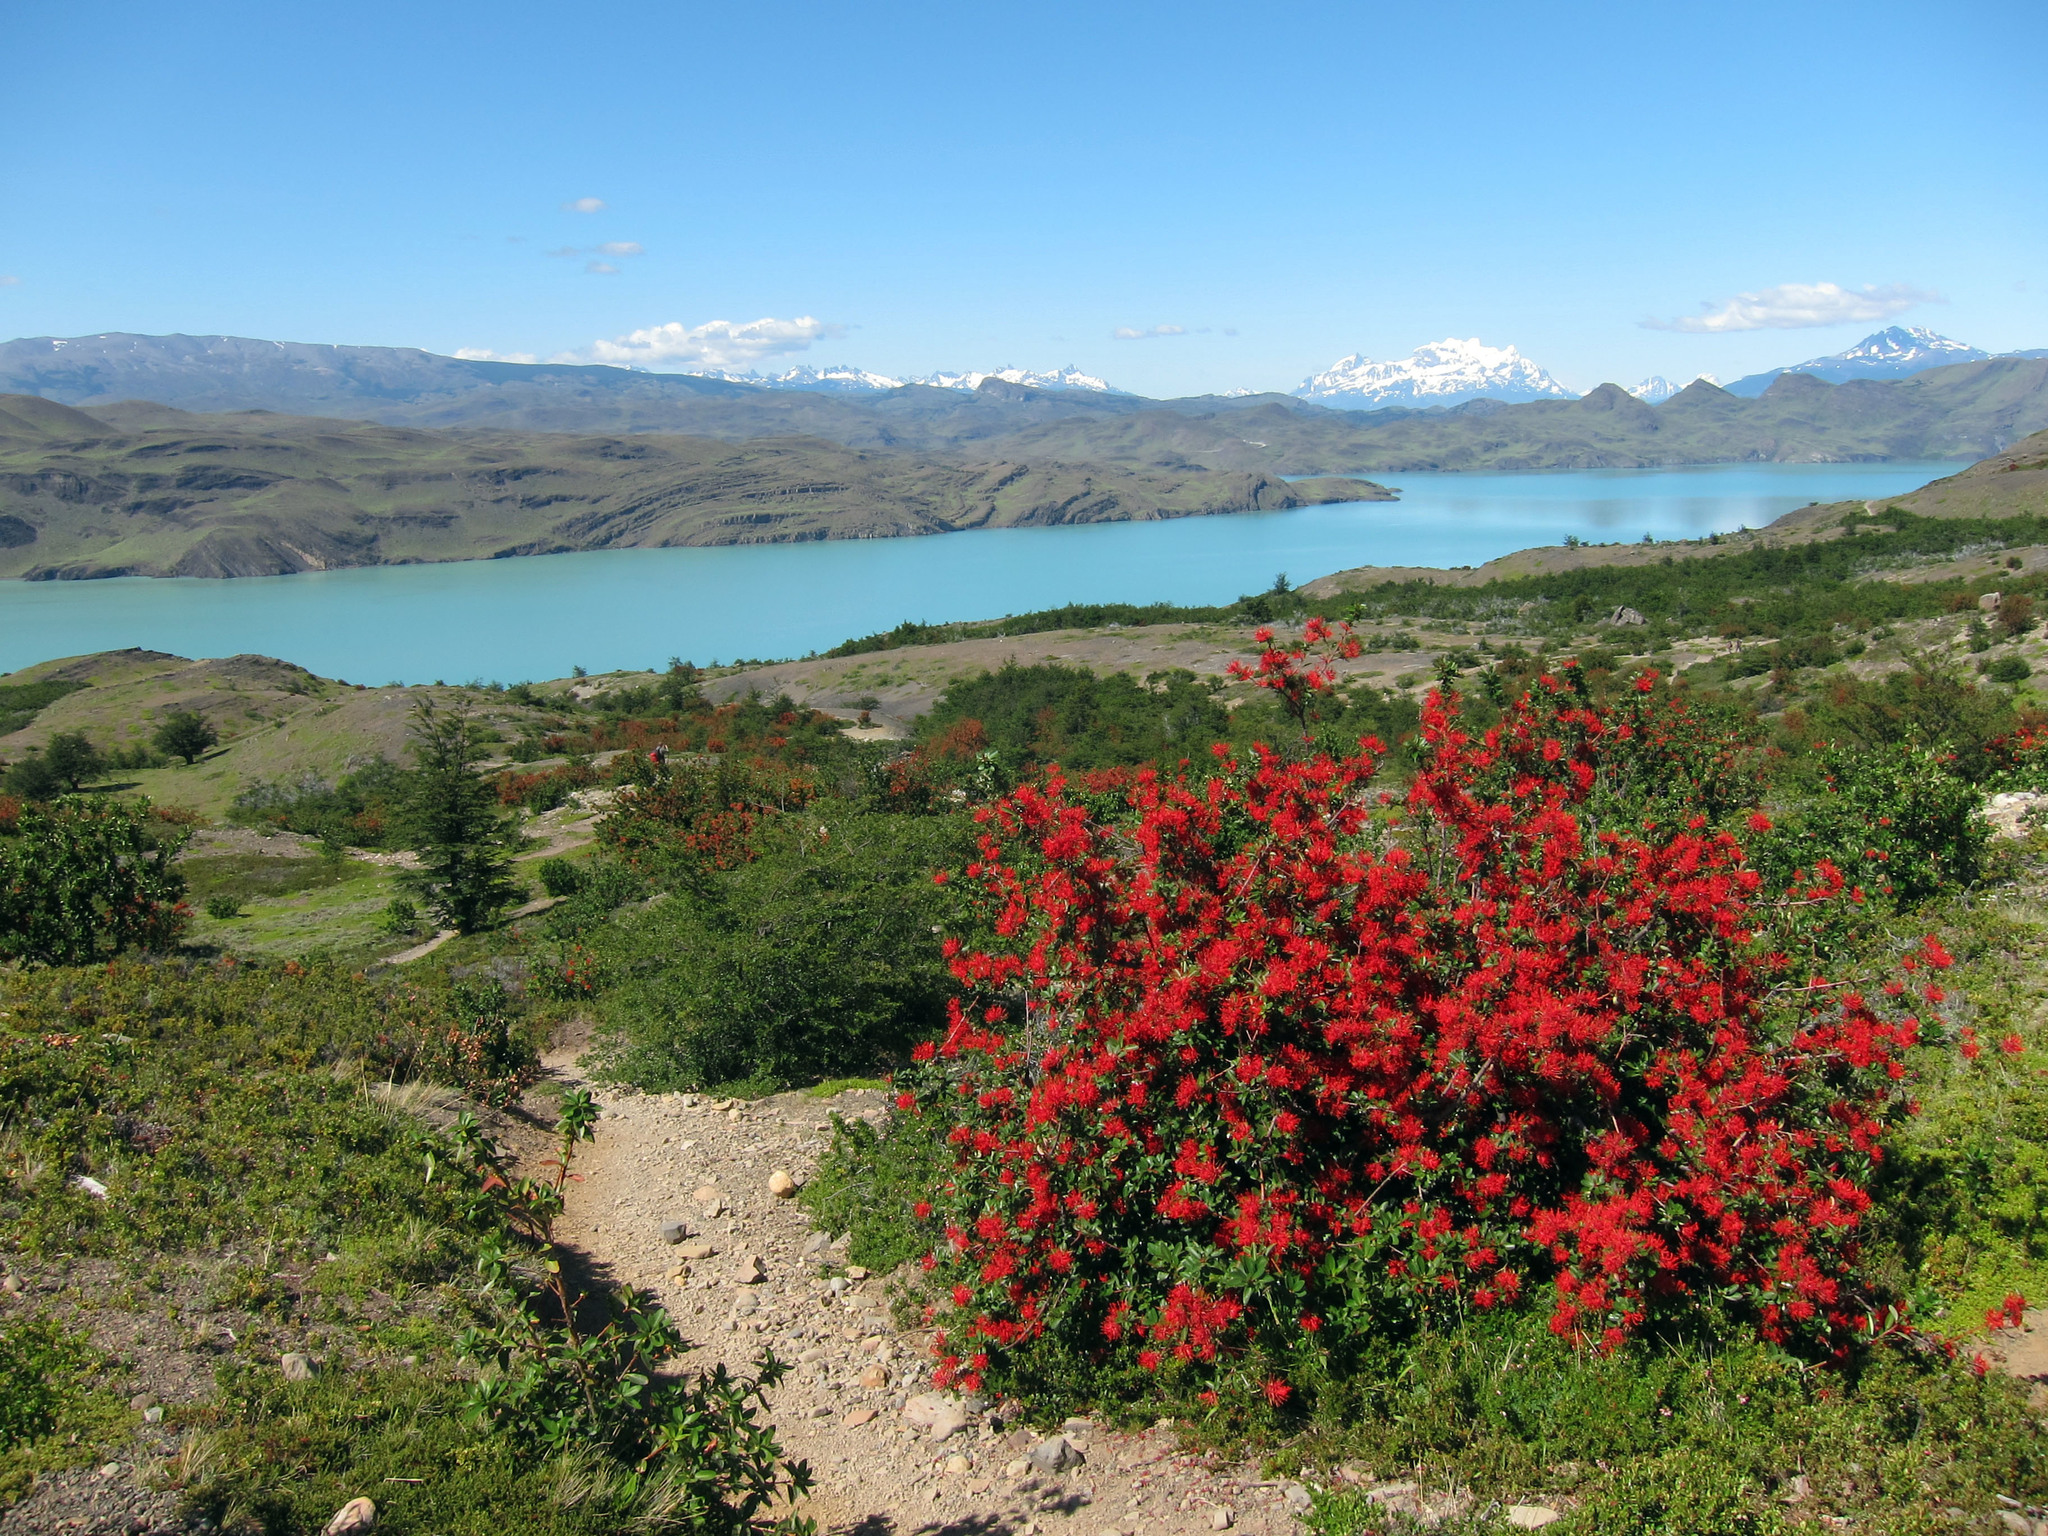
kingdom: Plantae
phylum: Tracheophyta
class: Magnoliopsida
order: Proteales
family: Proteaceae
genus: Embothrium
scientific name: Embothrium coccineum
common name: Chilean firebush
